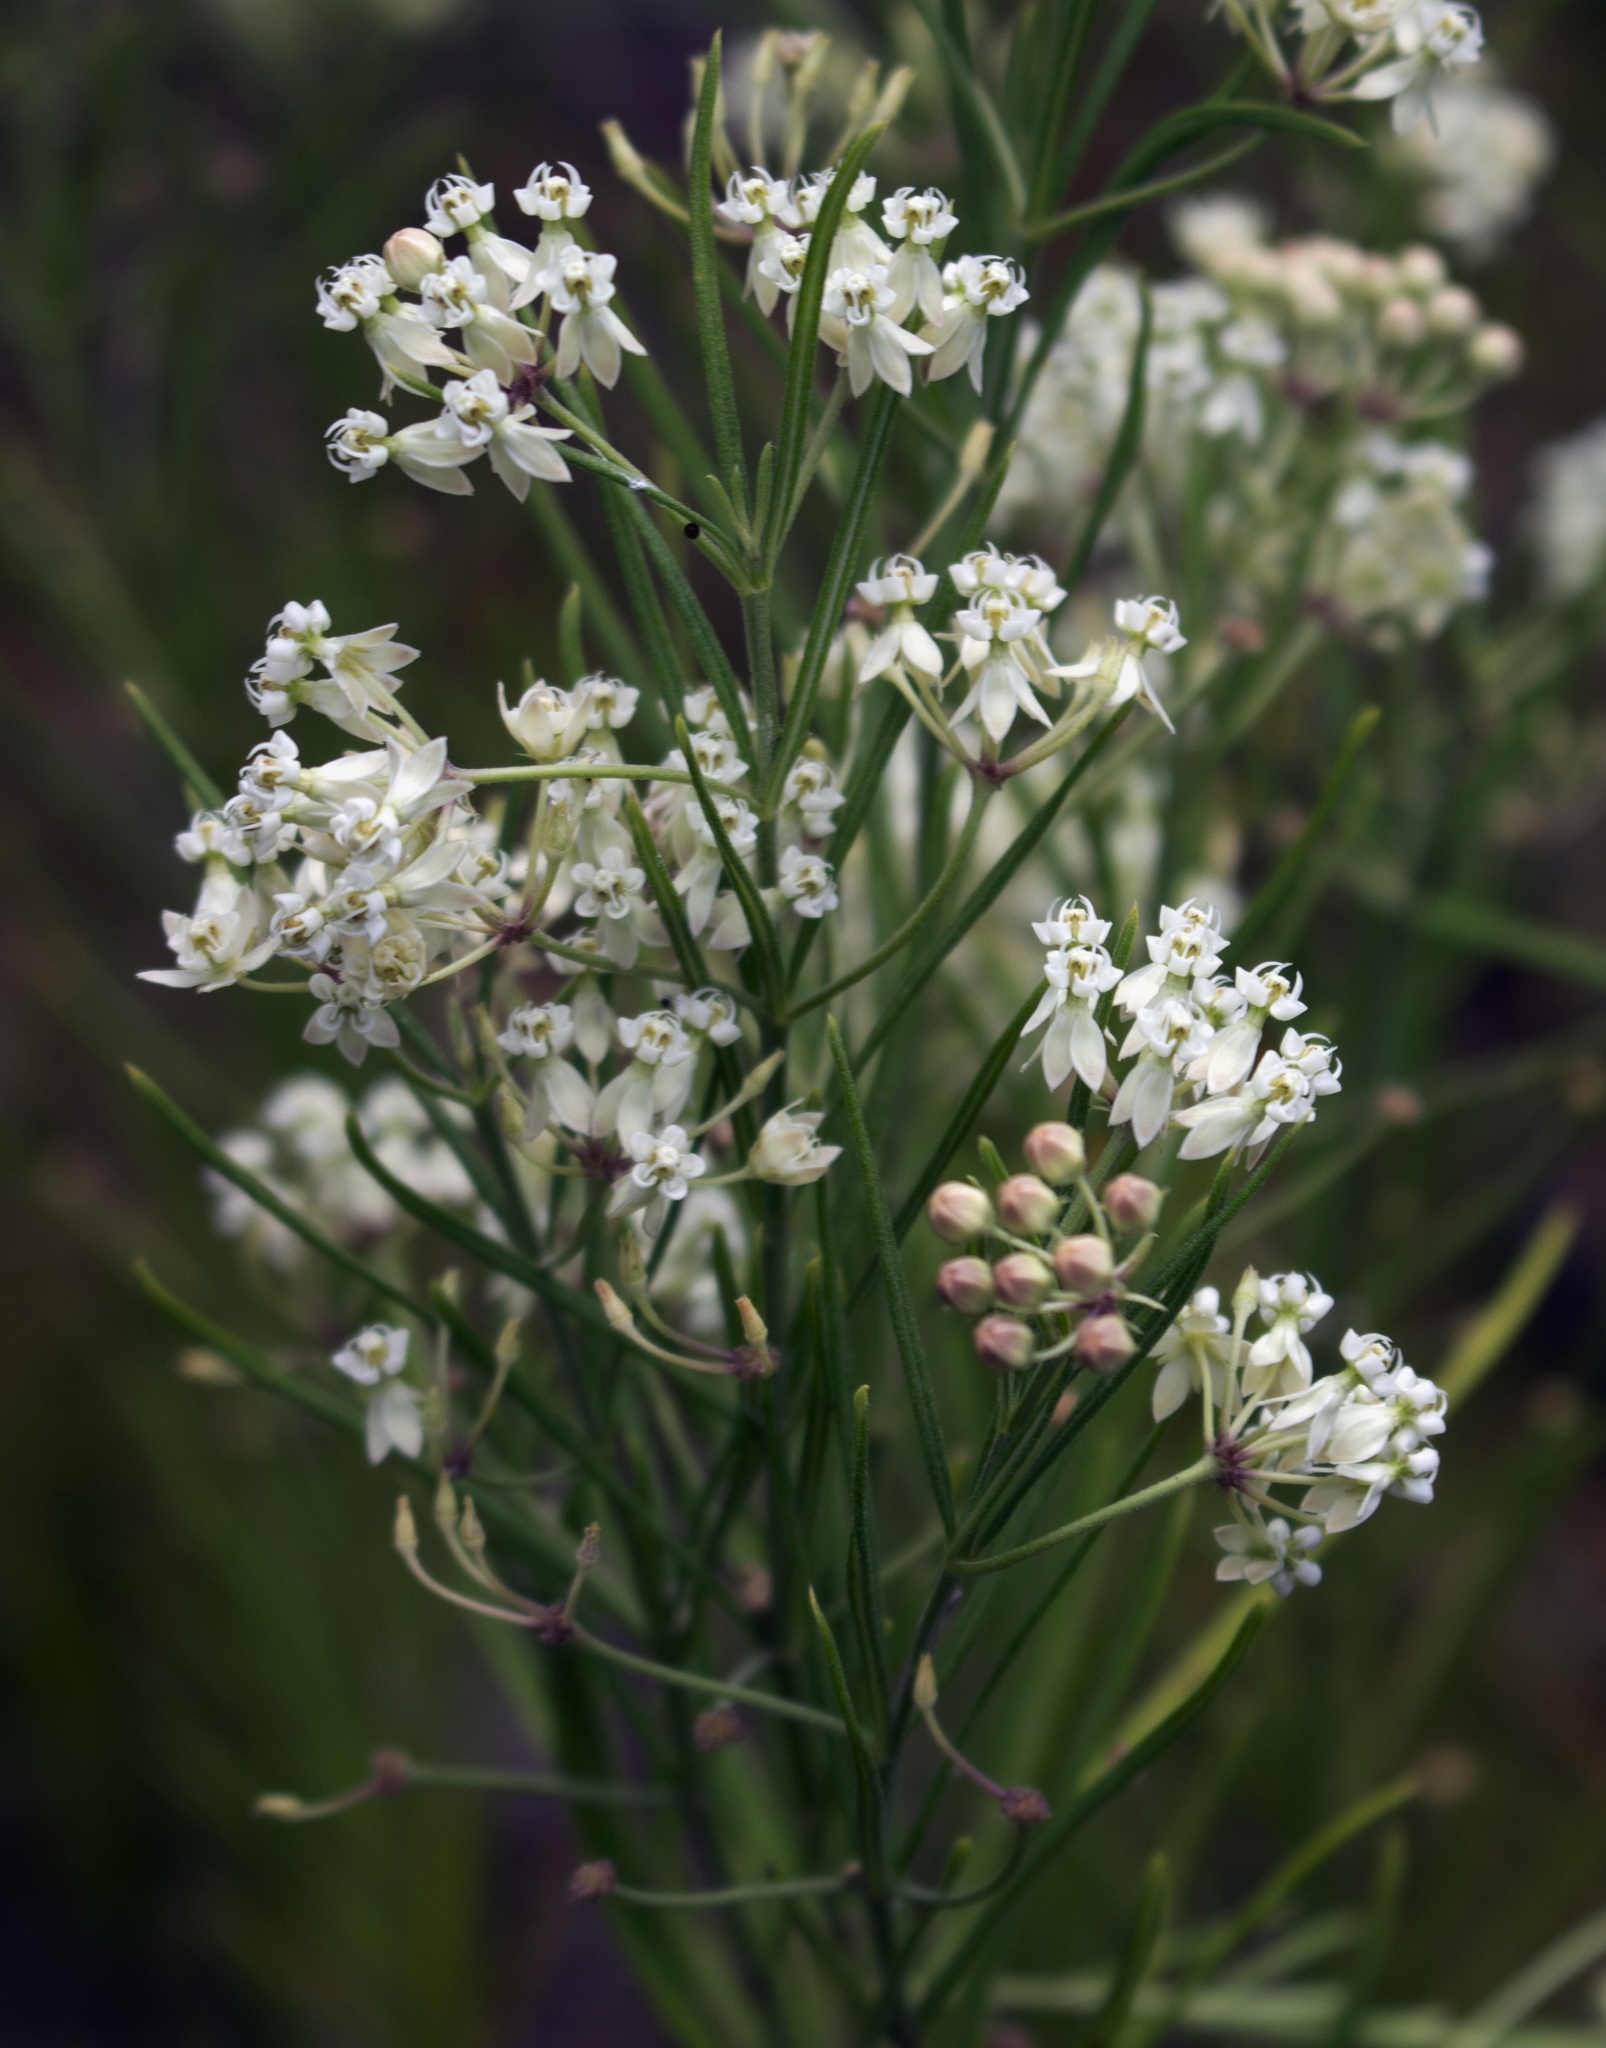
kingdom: Plantae
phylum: Tracheophyta
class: Magnoliopsida
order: Gentianales
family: Apocynaceae
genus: Asclepias
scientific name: Asclepias verticillata
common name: Eastern whorled milkweed
